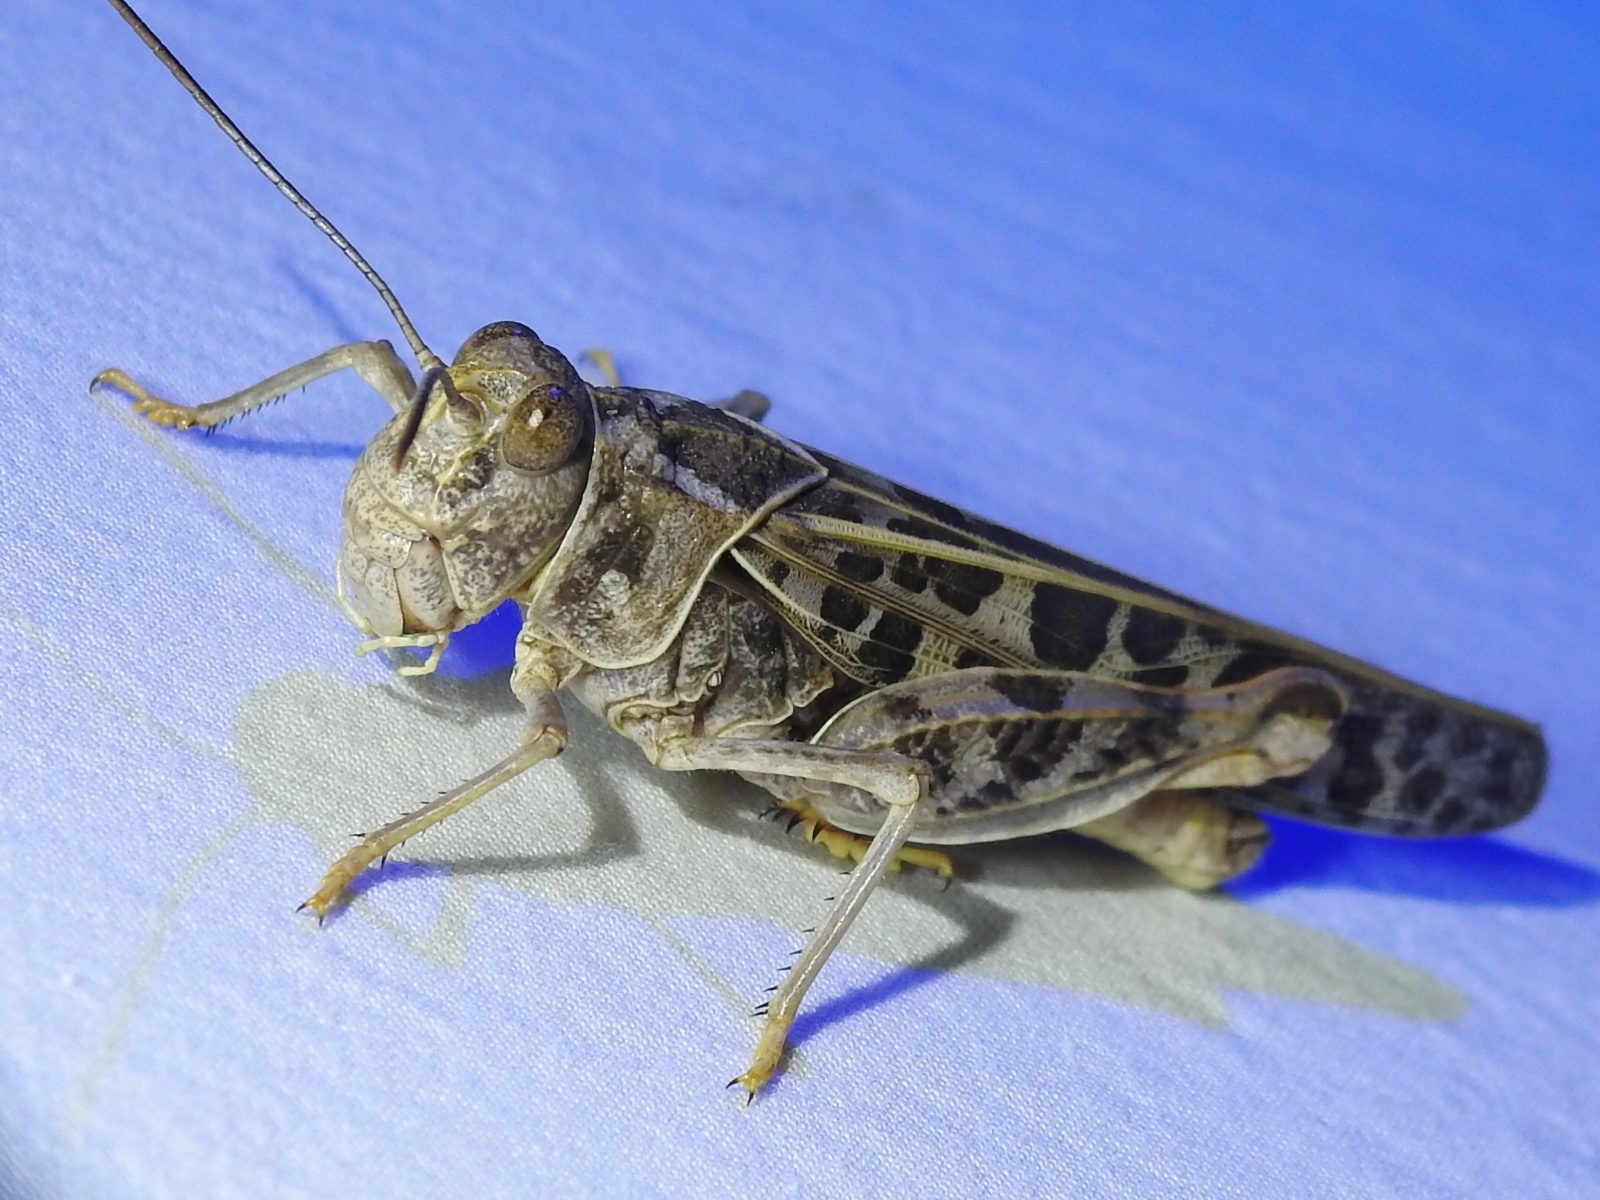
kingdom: Animalia
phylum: Arthropoda
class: Insecta
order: Orthoptera
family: Acrididae
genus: Xanthippus
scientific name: Xanthippus corallipes
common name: Redshanked grasshopper
